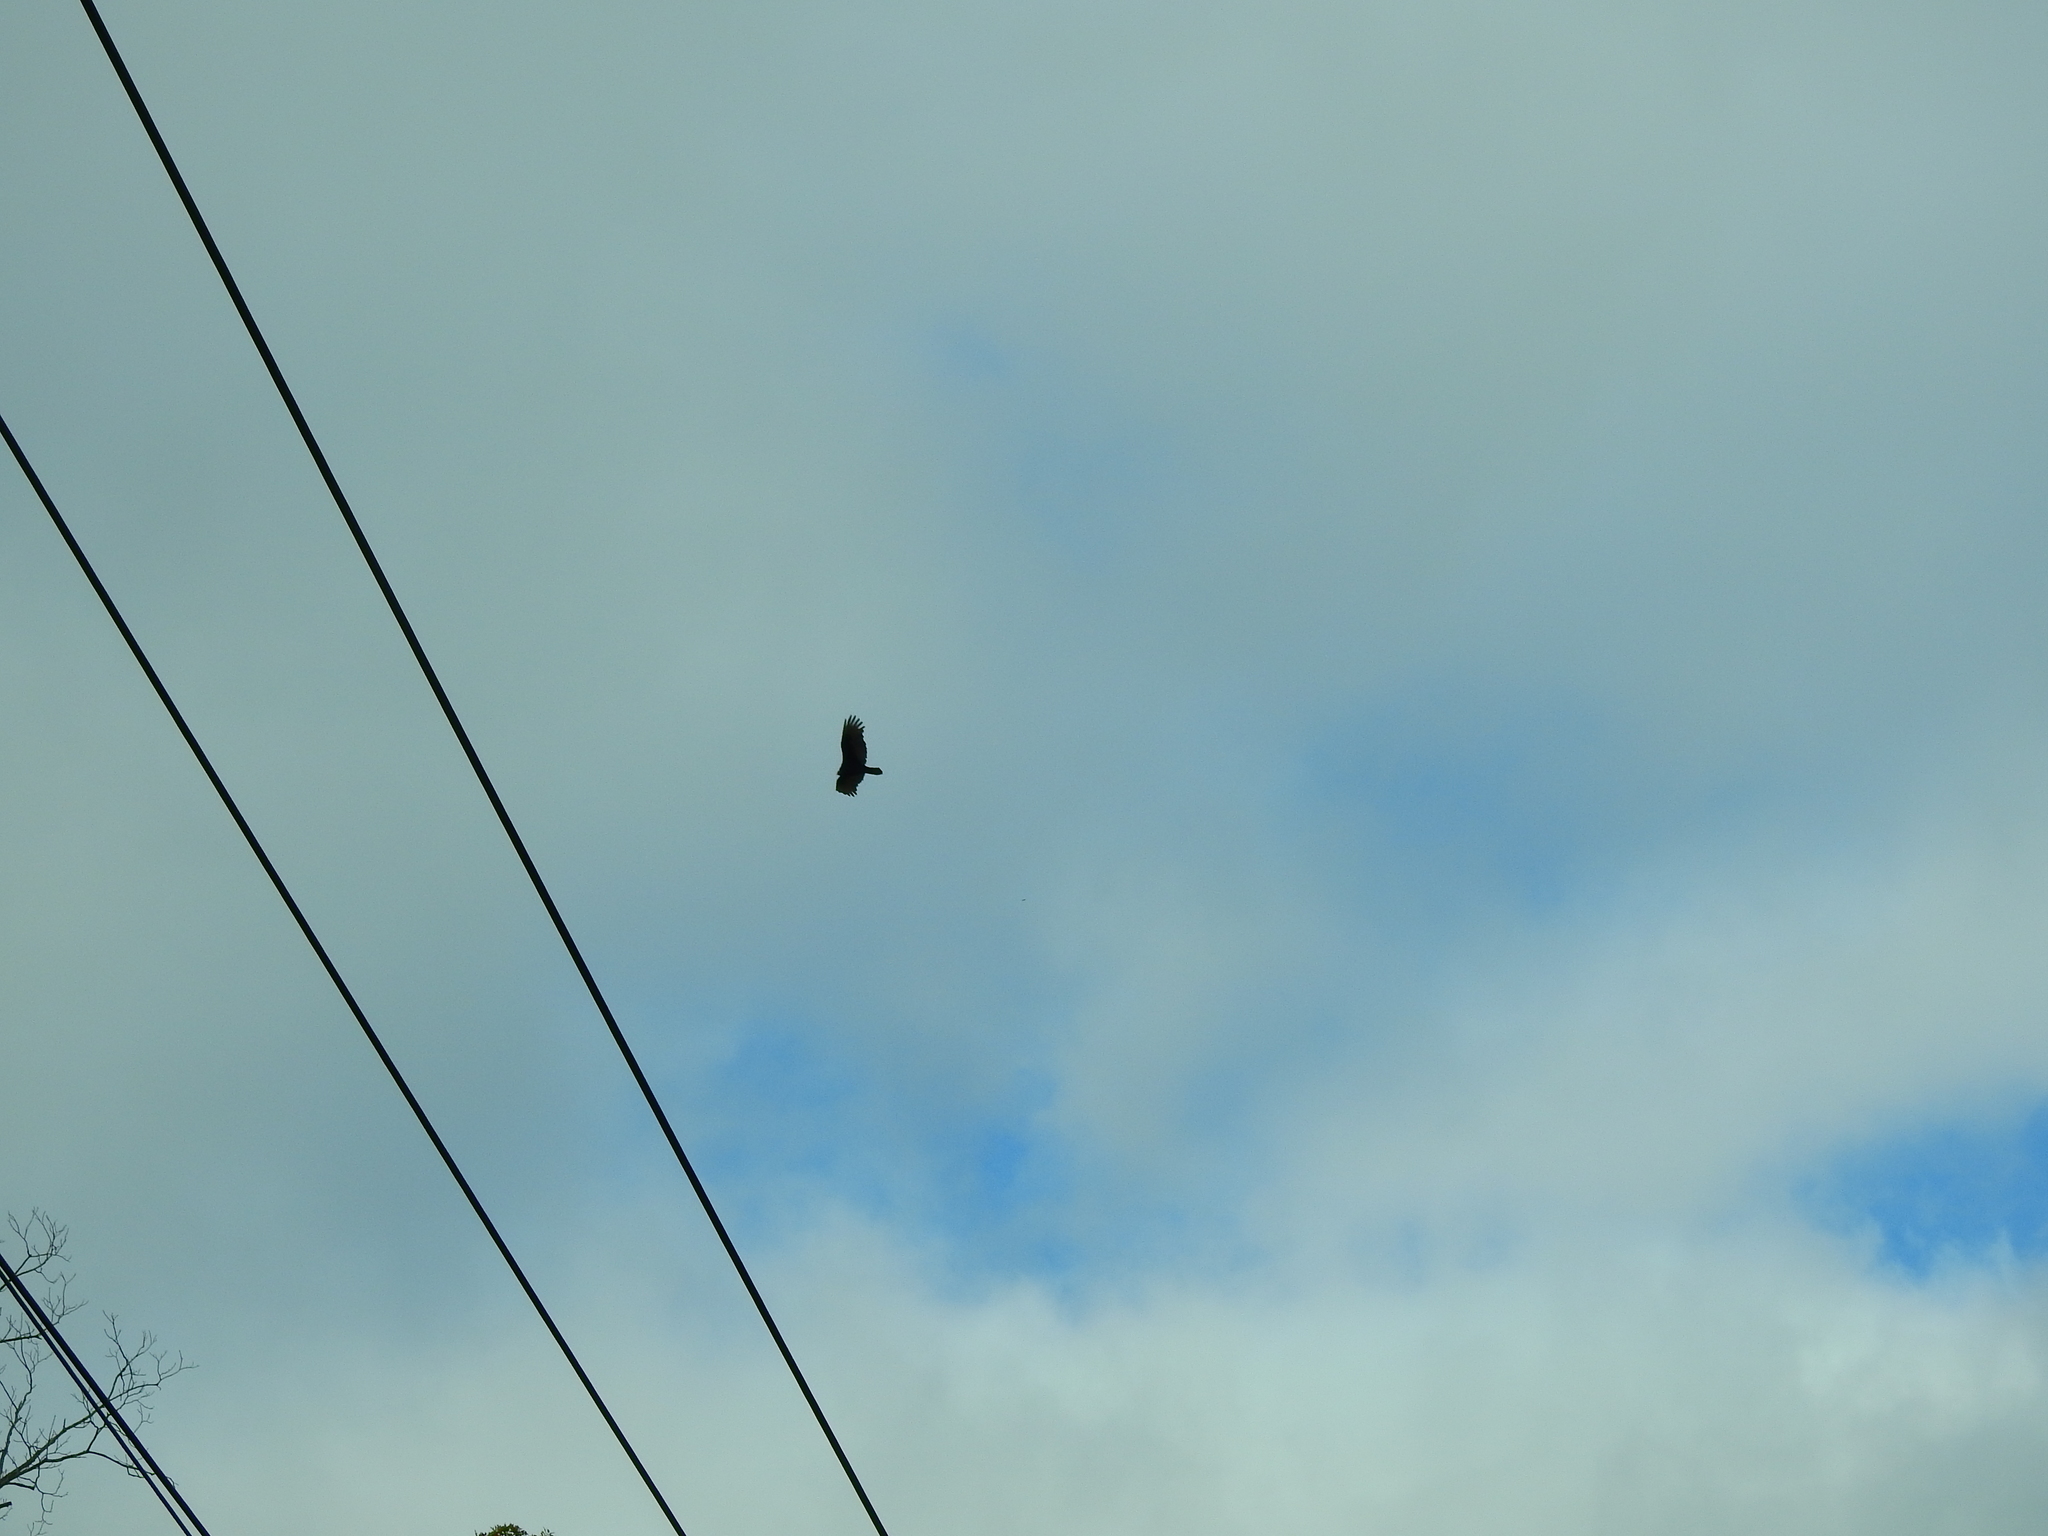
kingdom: Animalia
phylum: Chordata
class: Aves
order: Accipitriformes
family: Cathartidae
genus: Cathartes
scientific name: Cathartes aura
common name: Turkey vulture
